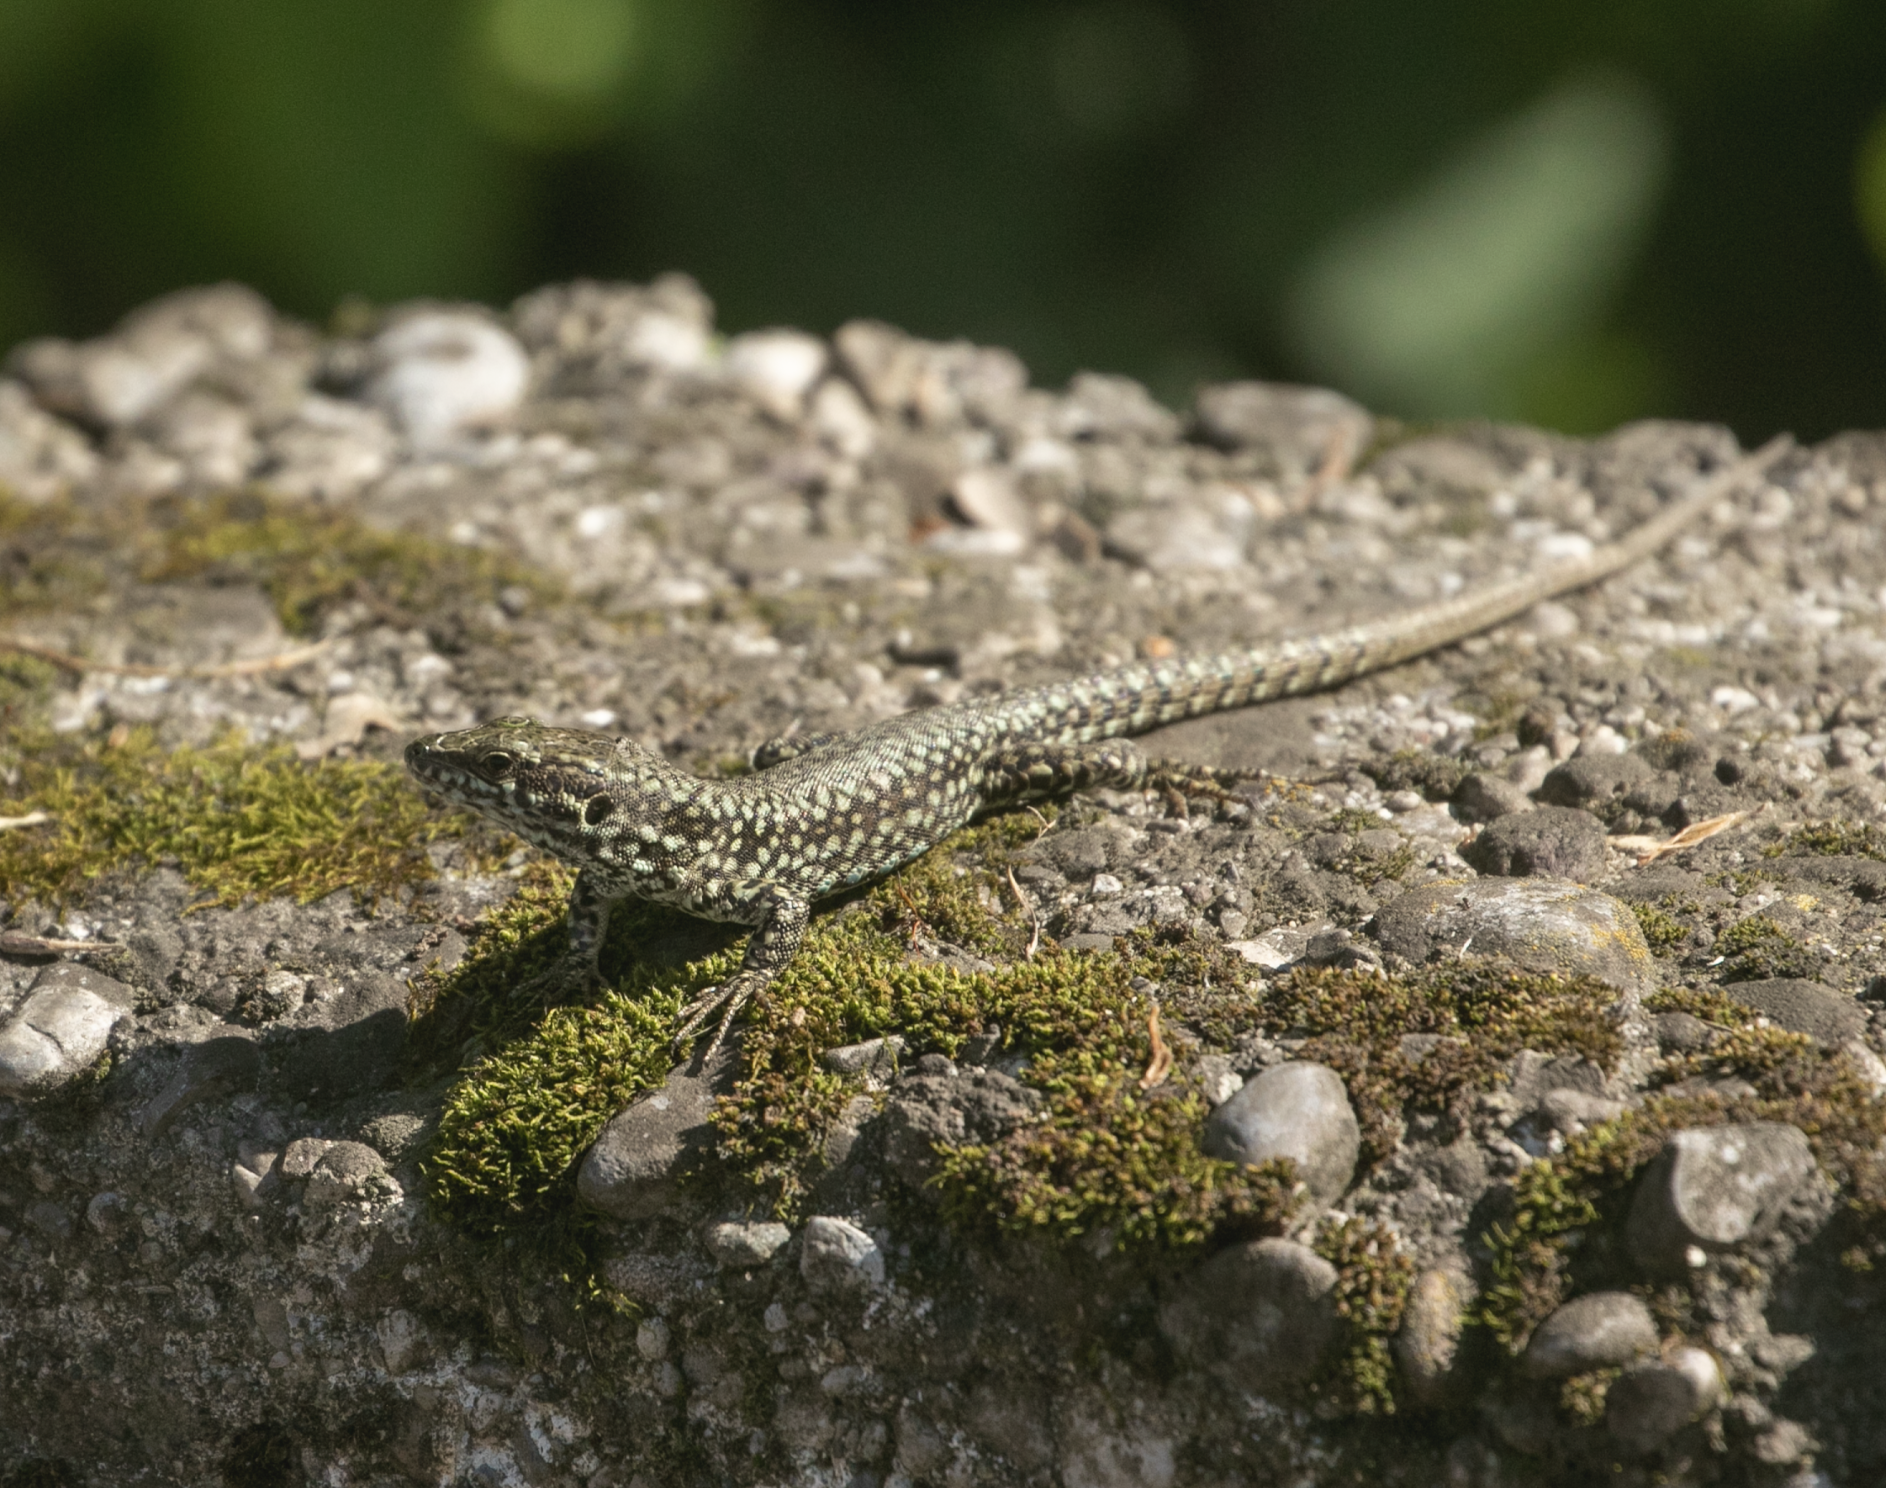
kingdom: Animalia
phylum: Chordata
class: Squamata
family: Lacertidae
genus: Podarcis
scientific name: Podarcis muralis
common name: Common wall lizard
